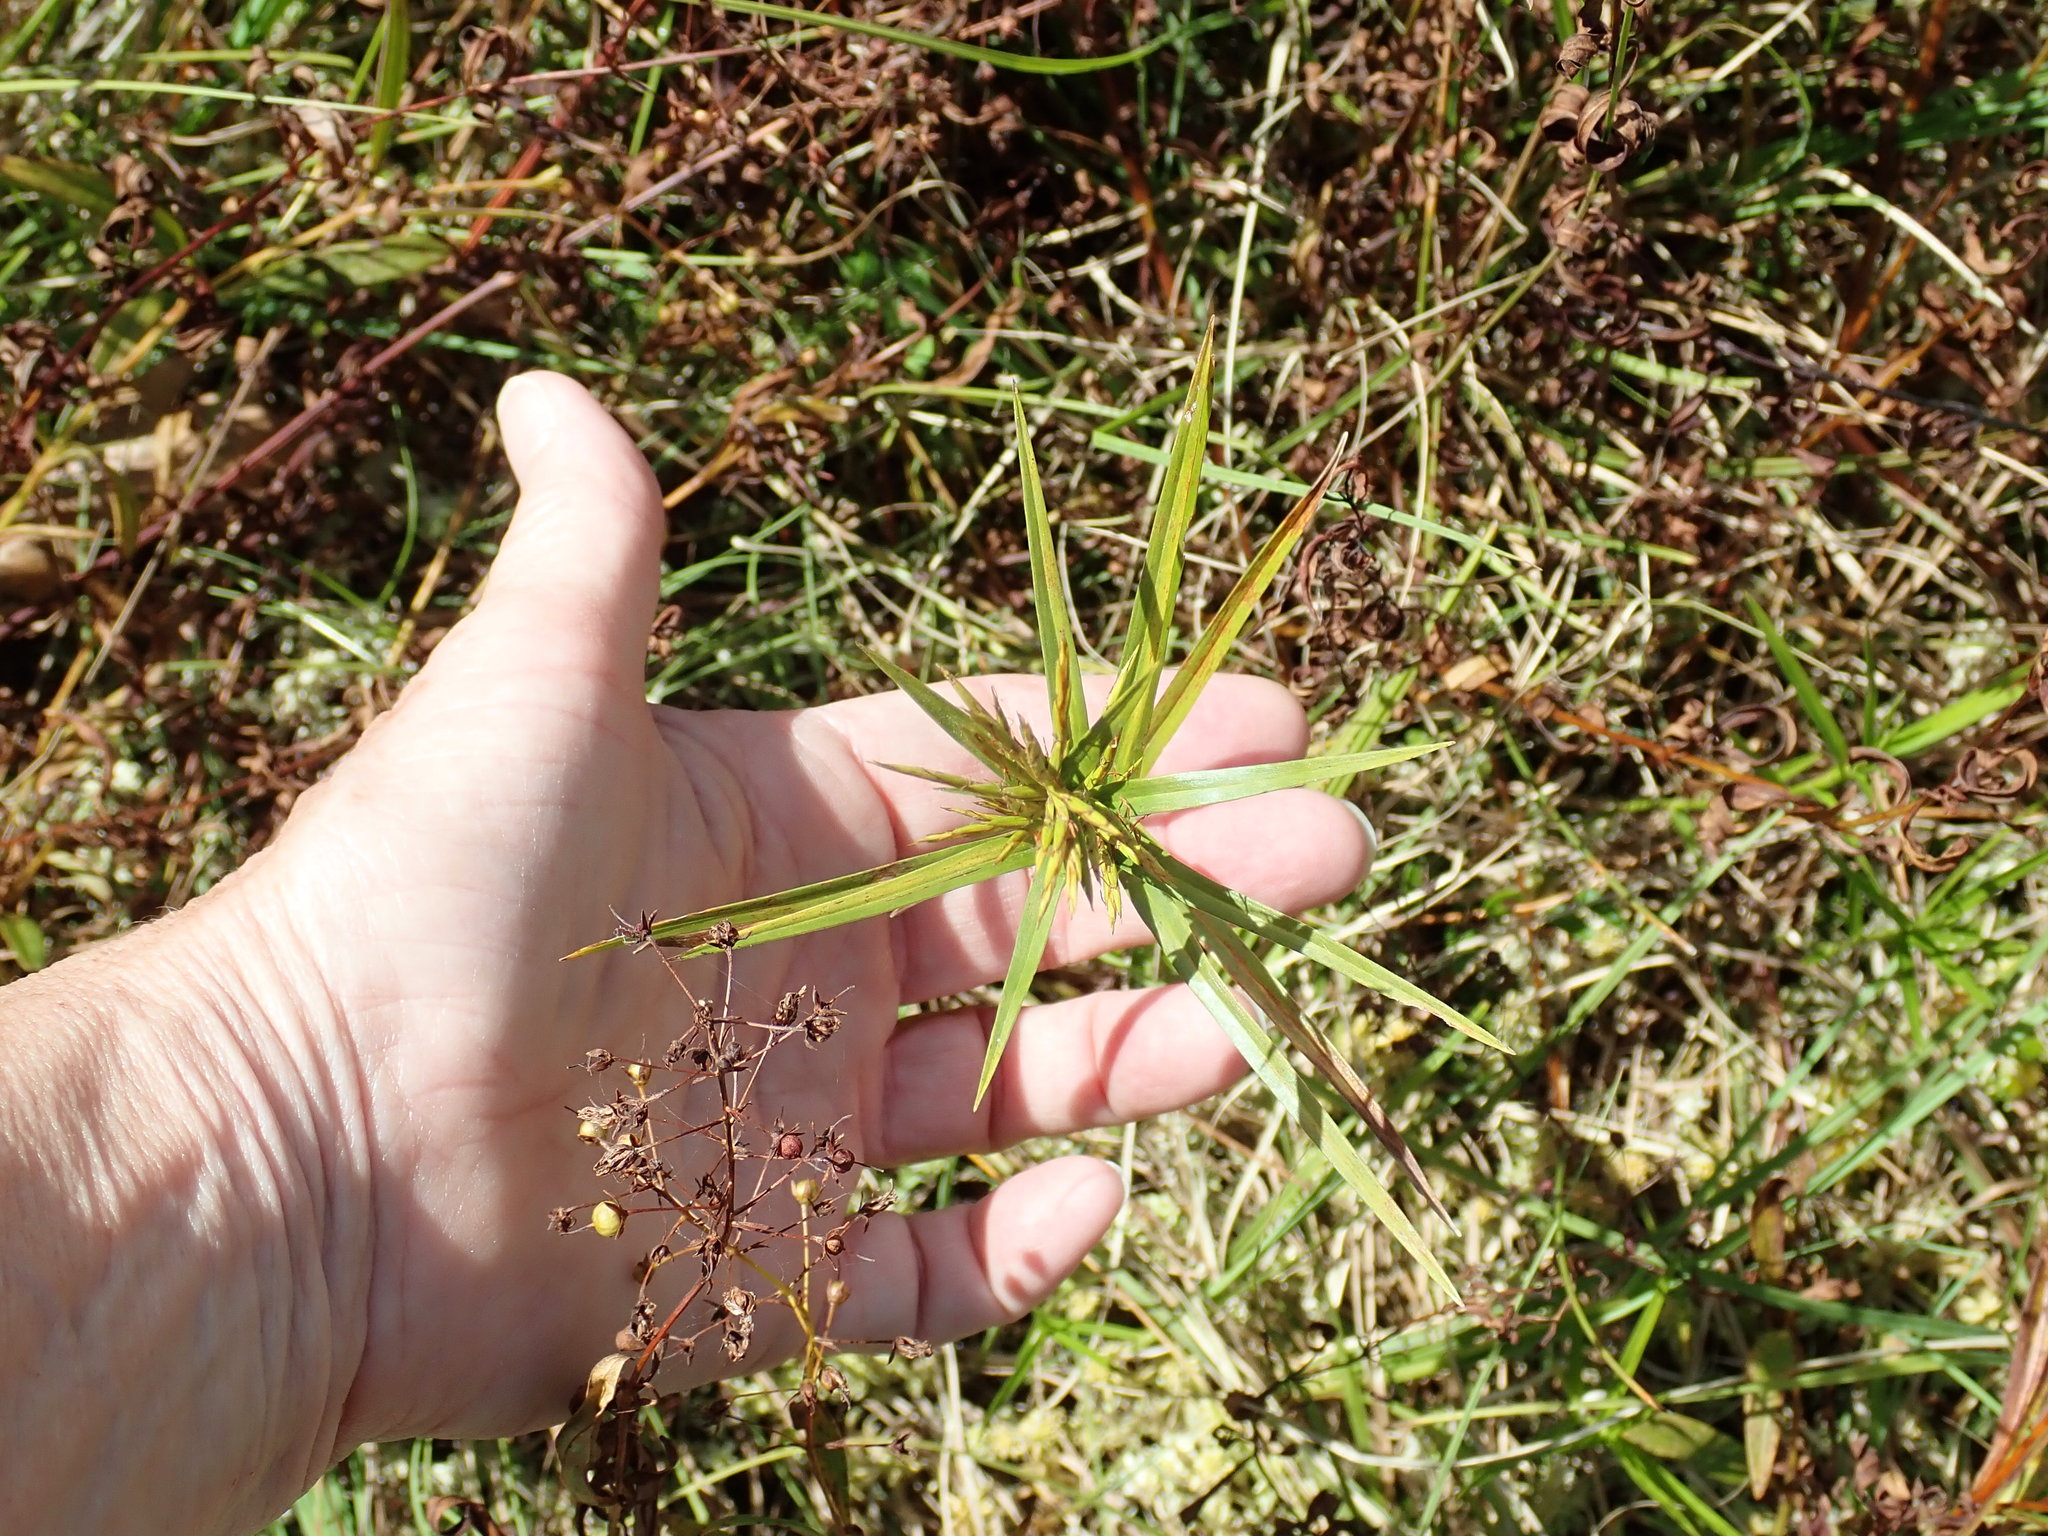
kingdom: Plantae
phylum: Tracheophyta
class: Liliopsida
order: Poales
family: Cyperaceae
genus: Dulichium
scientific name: Dulichium arundinaceum
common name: Three-way sedge
